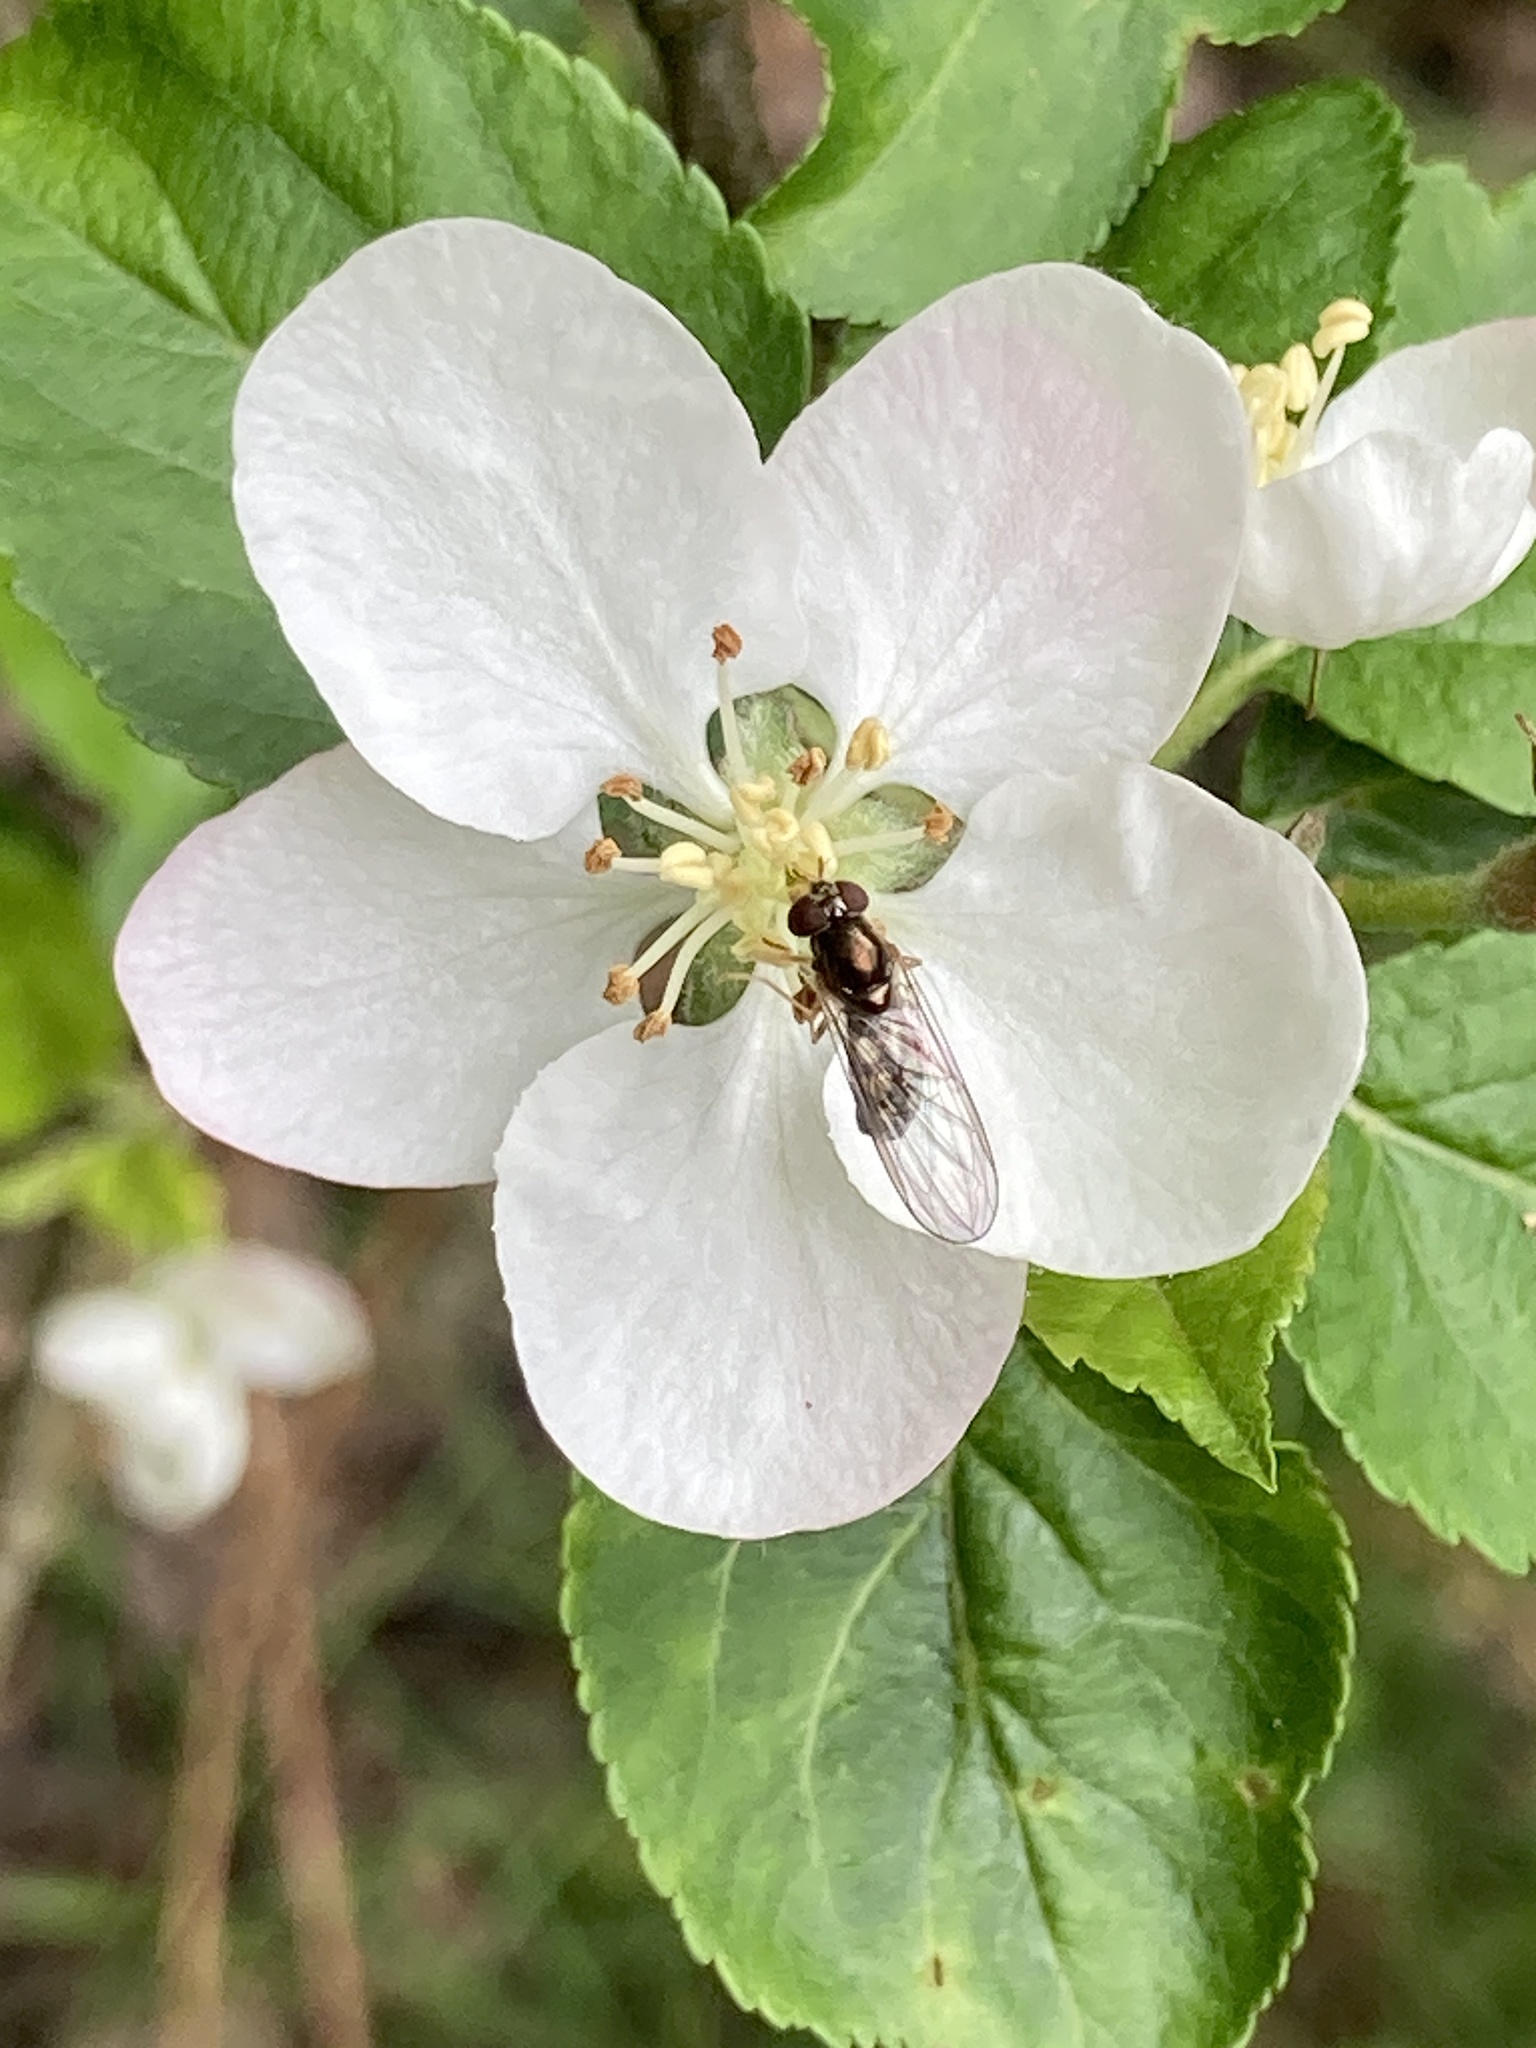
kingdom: Animalia
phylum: Arthropoda
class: Insecta
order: Diptera
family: Syrphidae
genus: Melanostoma
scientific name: Melanostoma scalare
